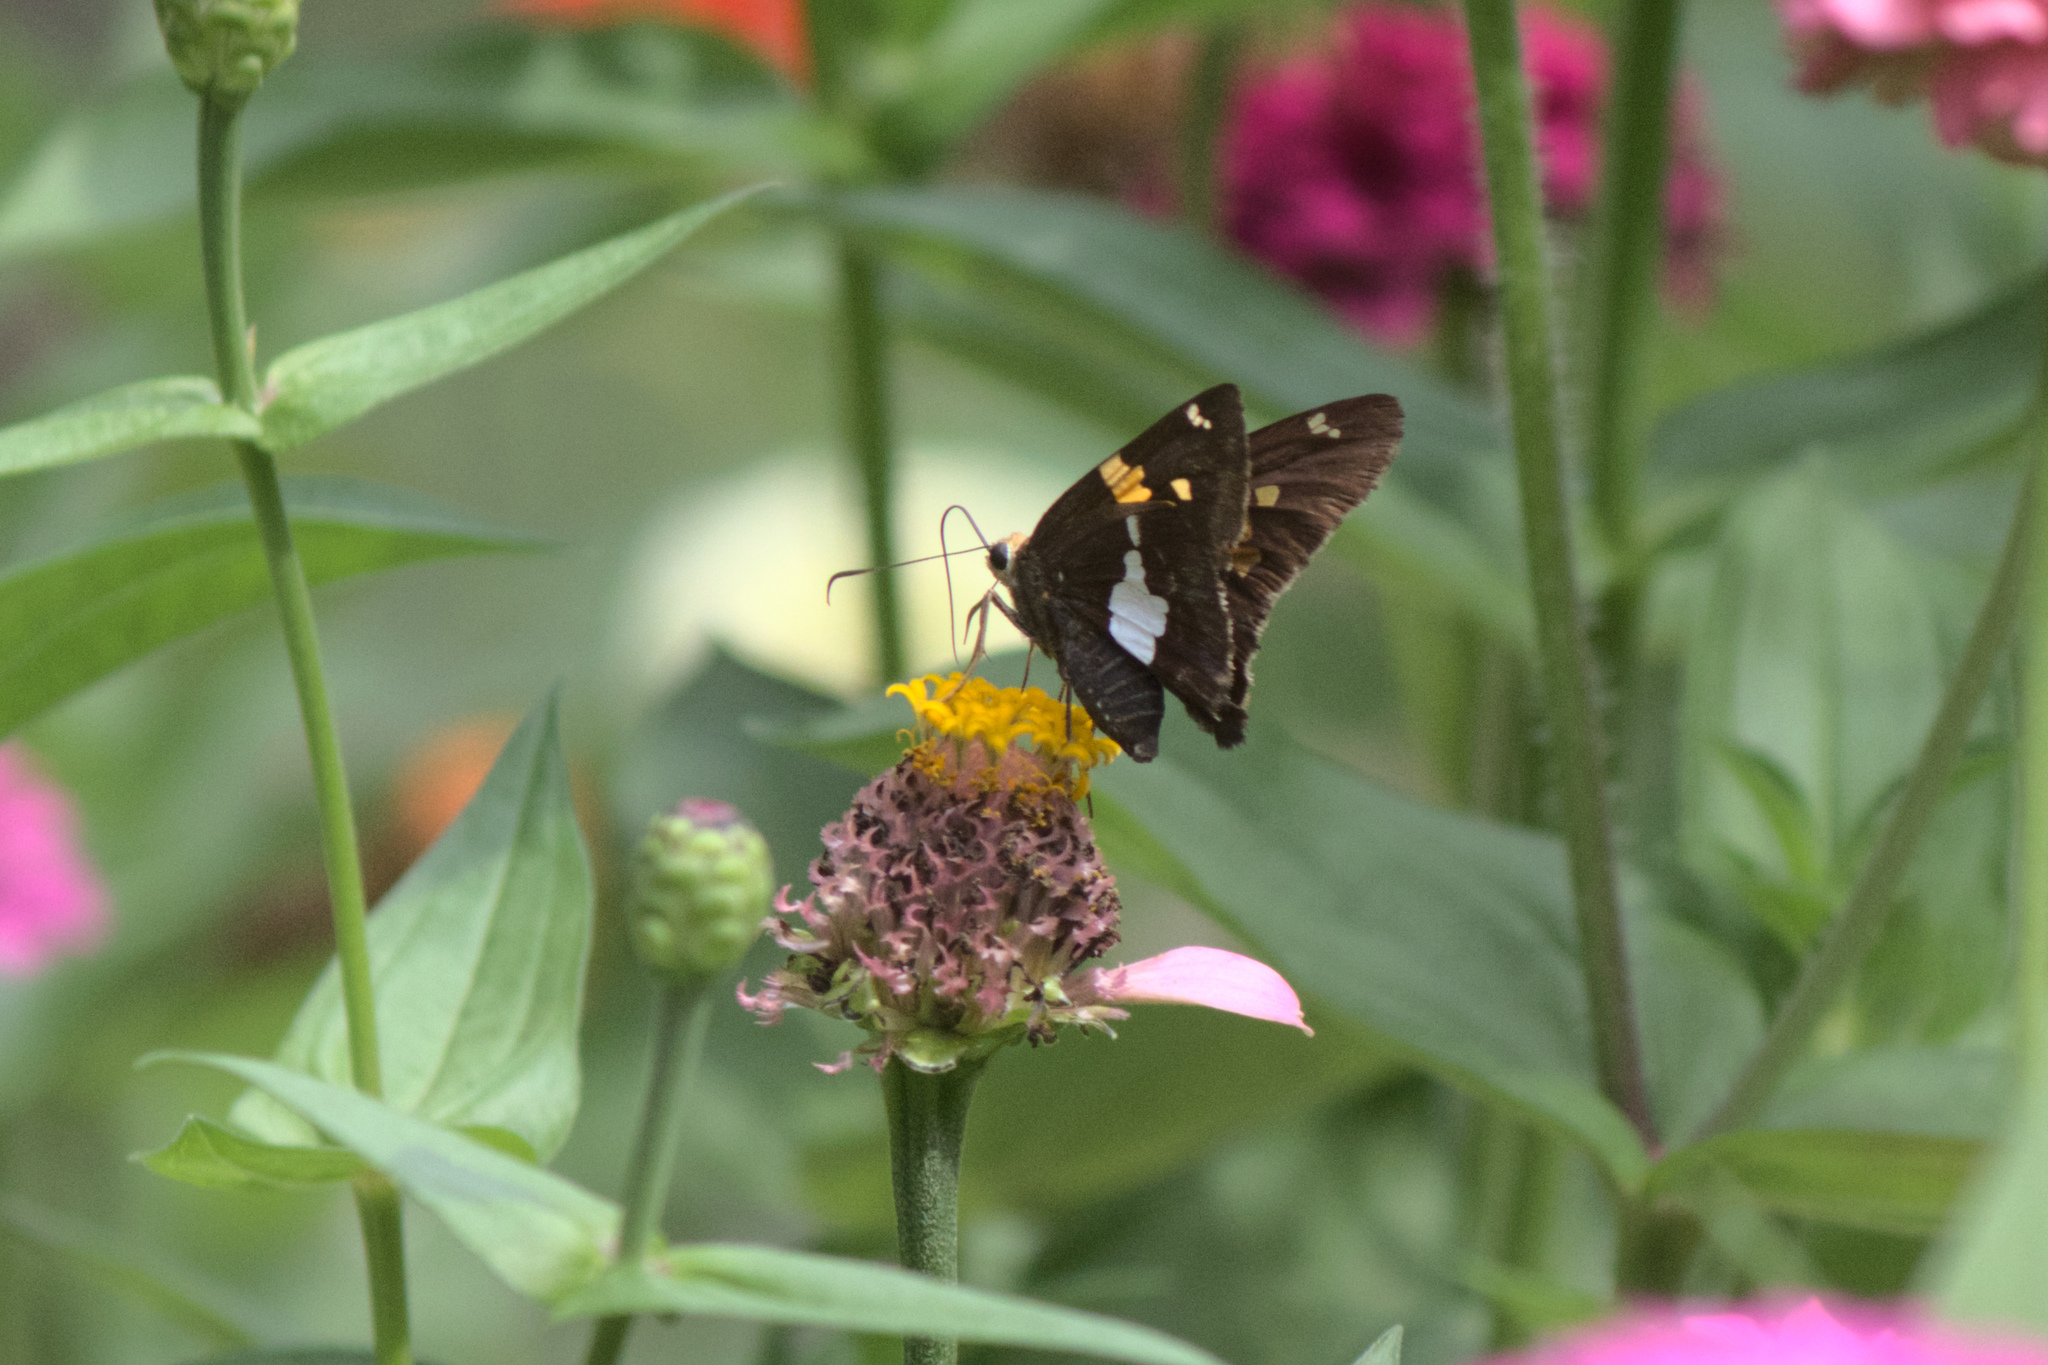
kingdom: Animalia
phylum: Arthropoda
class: Insecta
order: Lepidoptera
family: Hesperiidae
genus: Epargyreus
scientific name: Epargyreus clarus
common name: Silver-spotted skipper
